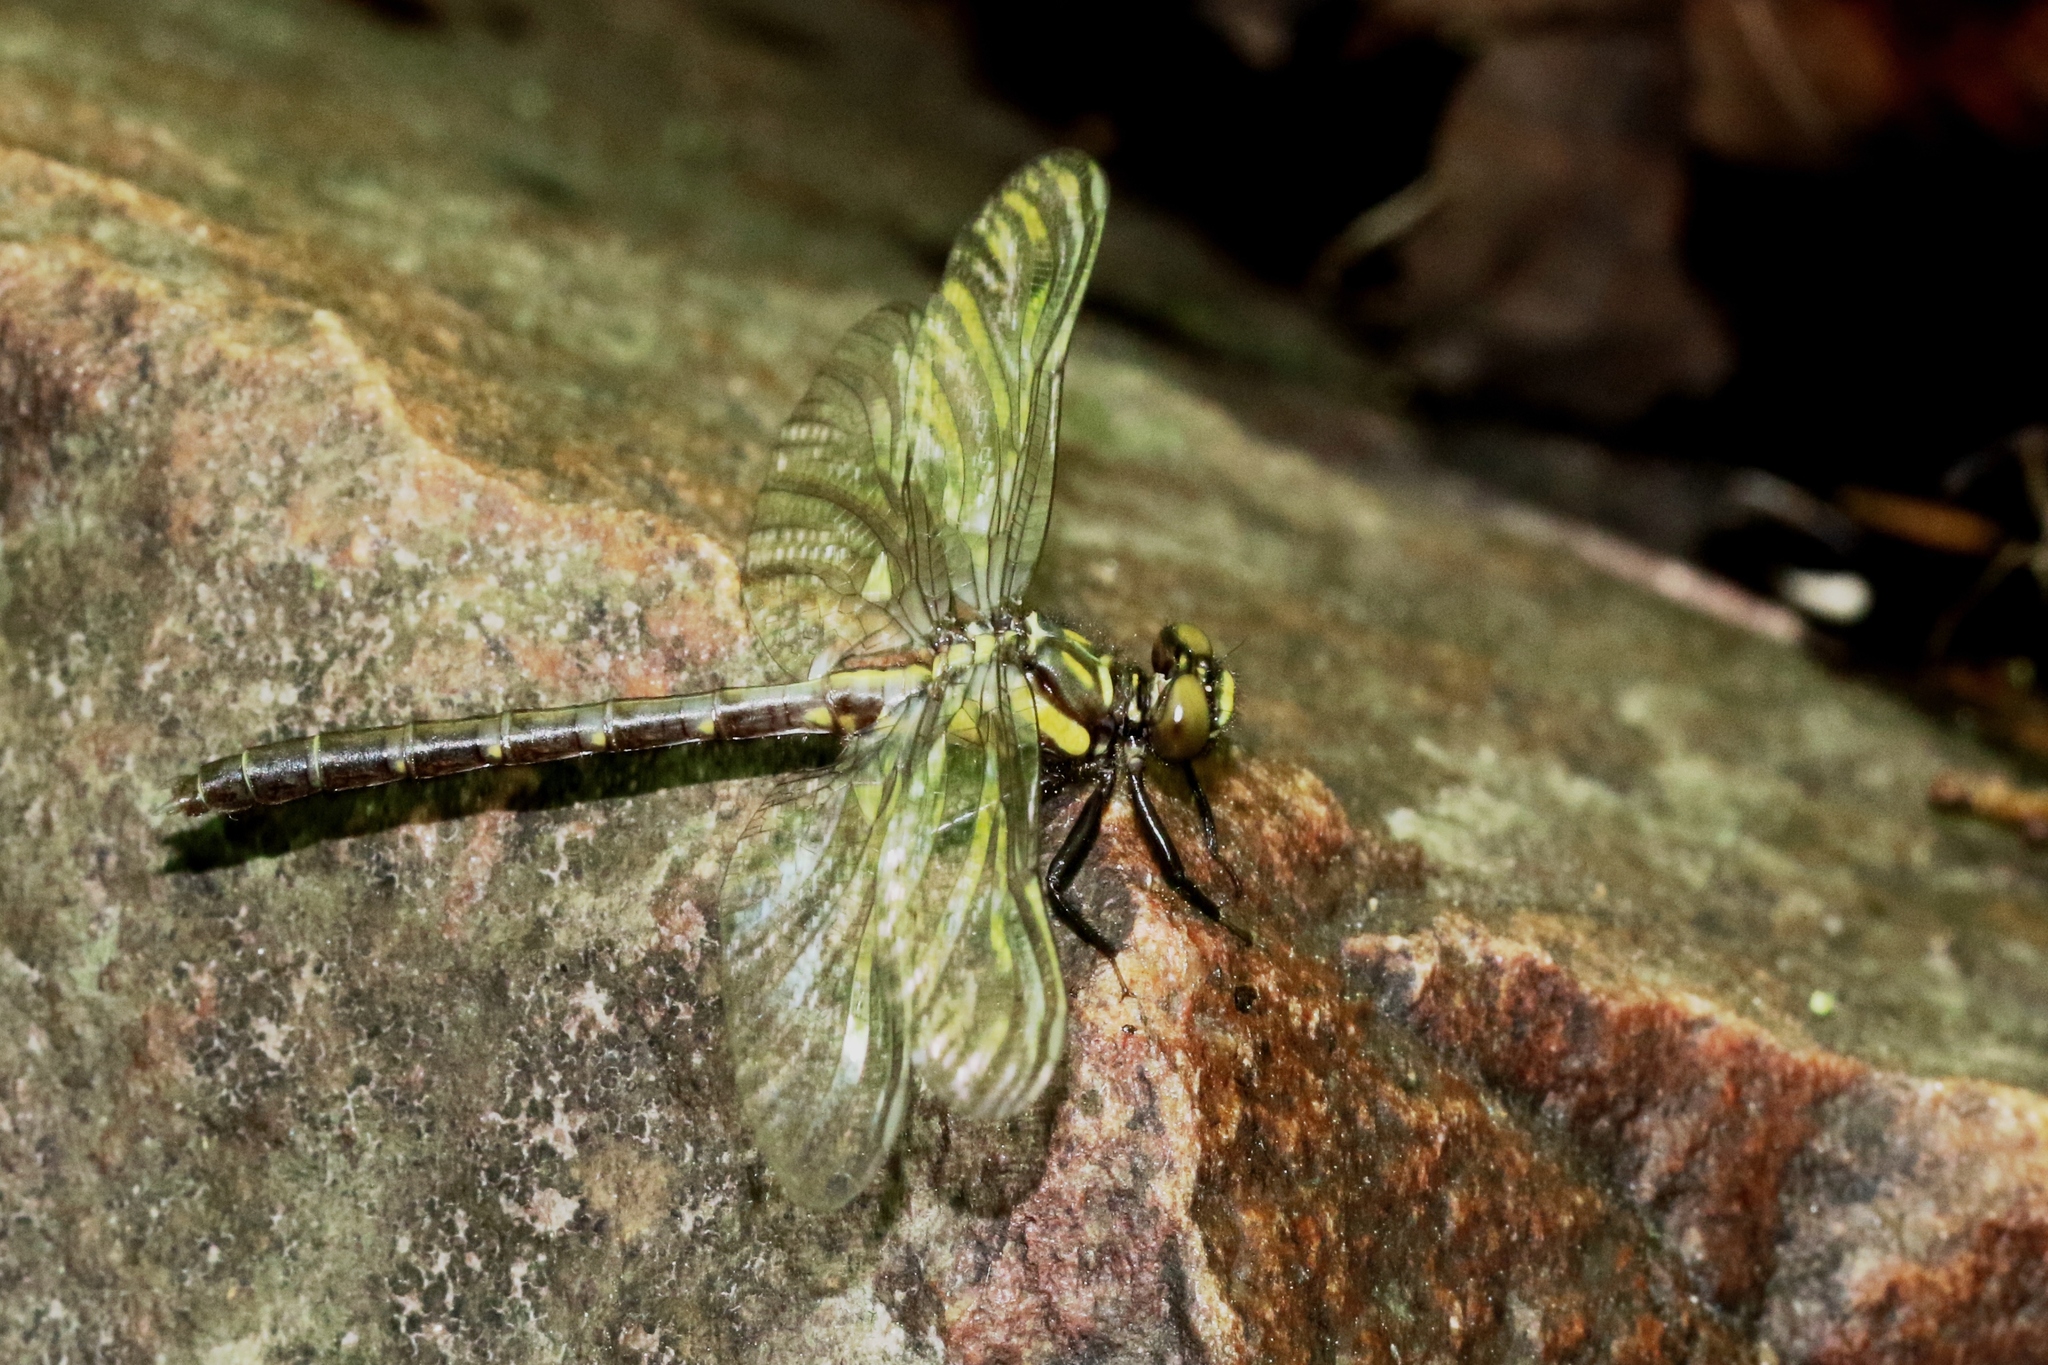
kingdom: Animalia
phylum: Arthropoda
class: Insecta
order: Odonata
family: Gomphidae
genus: Lanthus
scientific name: Lanthus parvulus
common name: Northern pygmy clubtail
